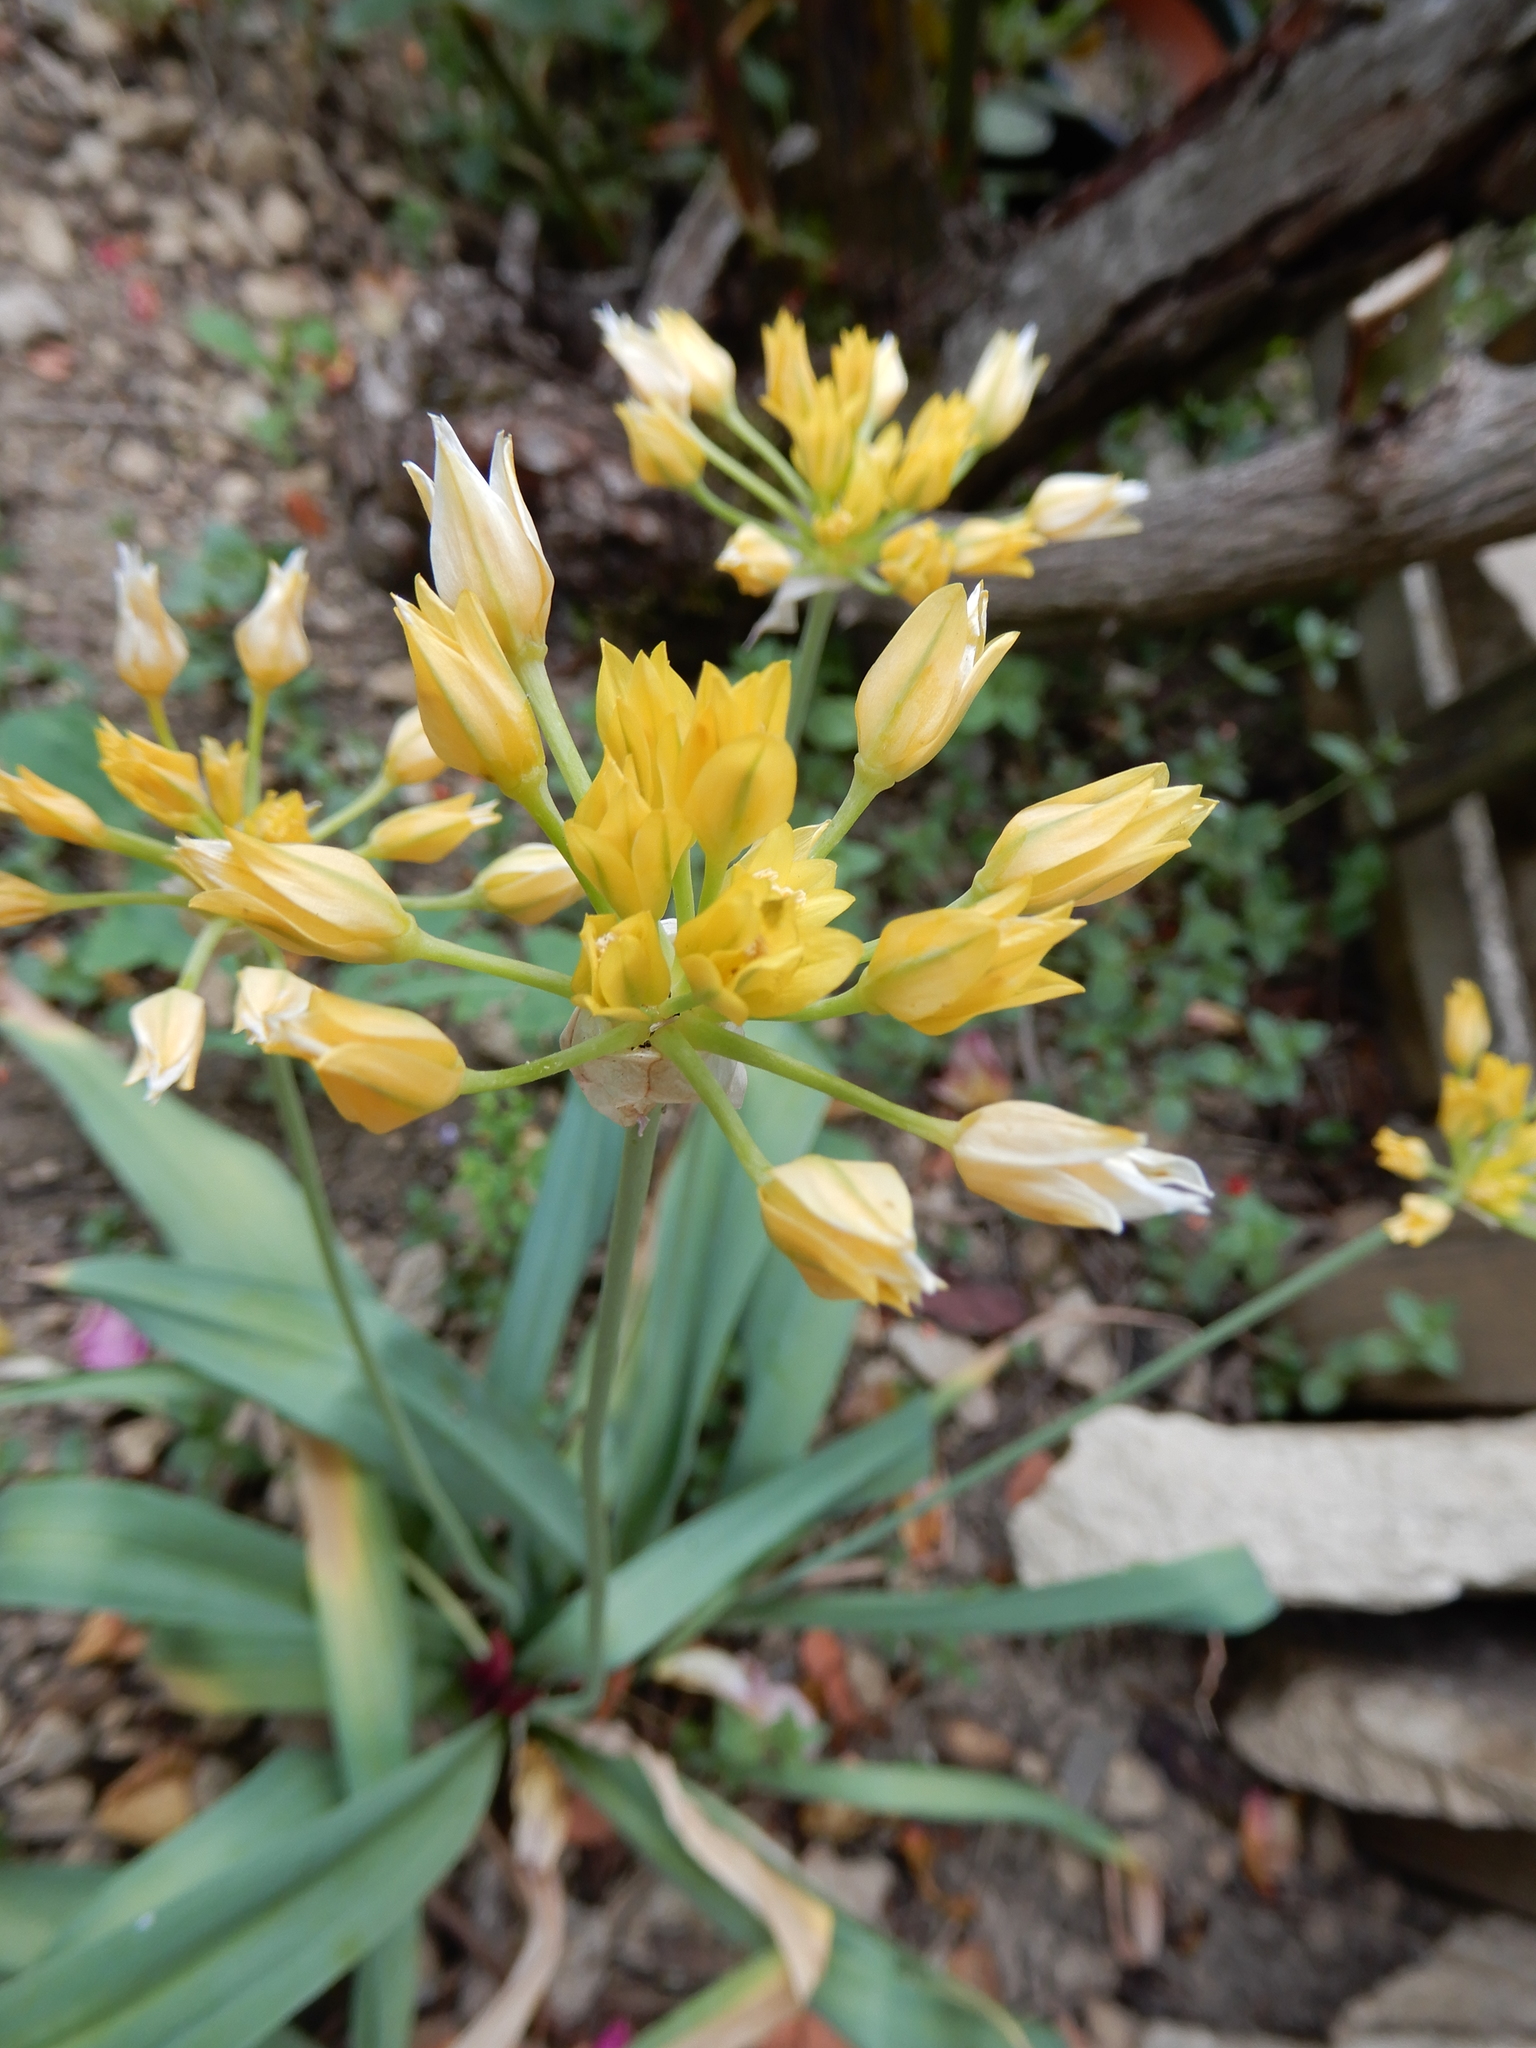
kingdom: Plantae
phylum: Tracheophyta
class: Liliopsida
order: Asparagales
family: Amaryllidaceae
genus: Allium
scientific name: Allium moly
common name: Yellow garlic
